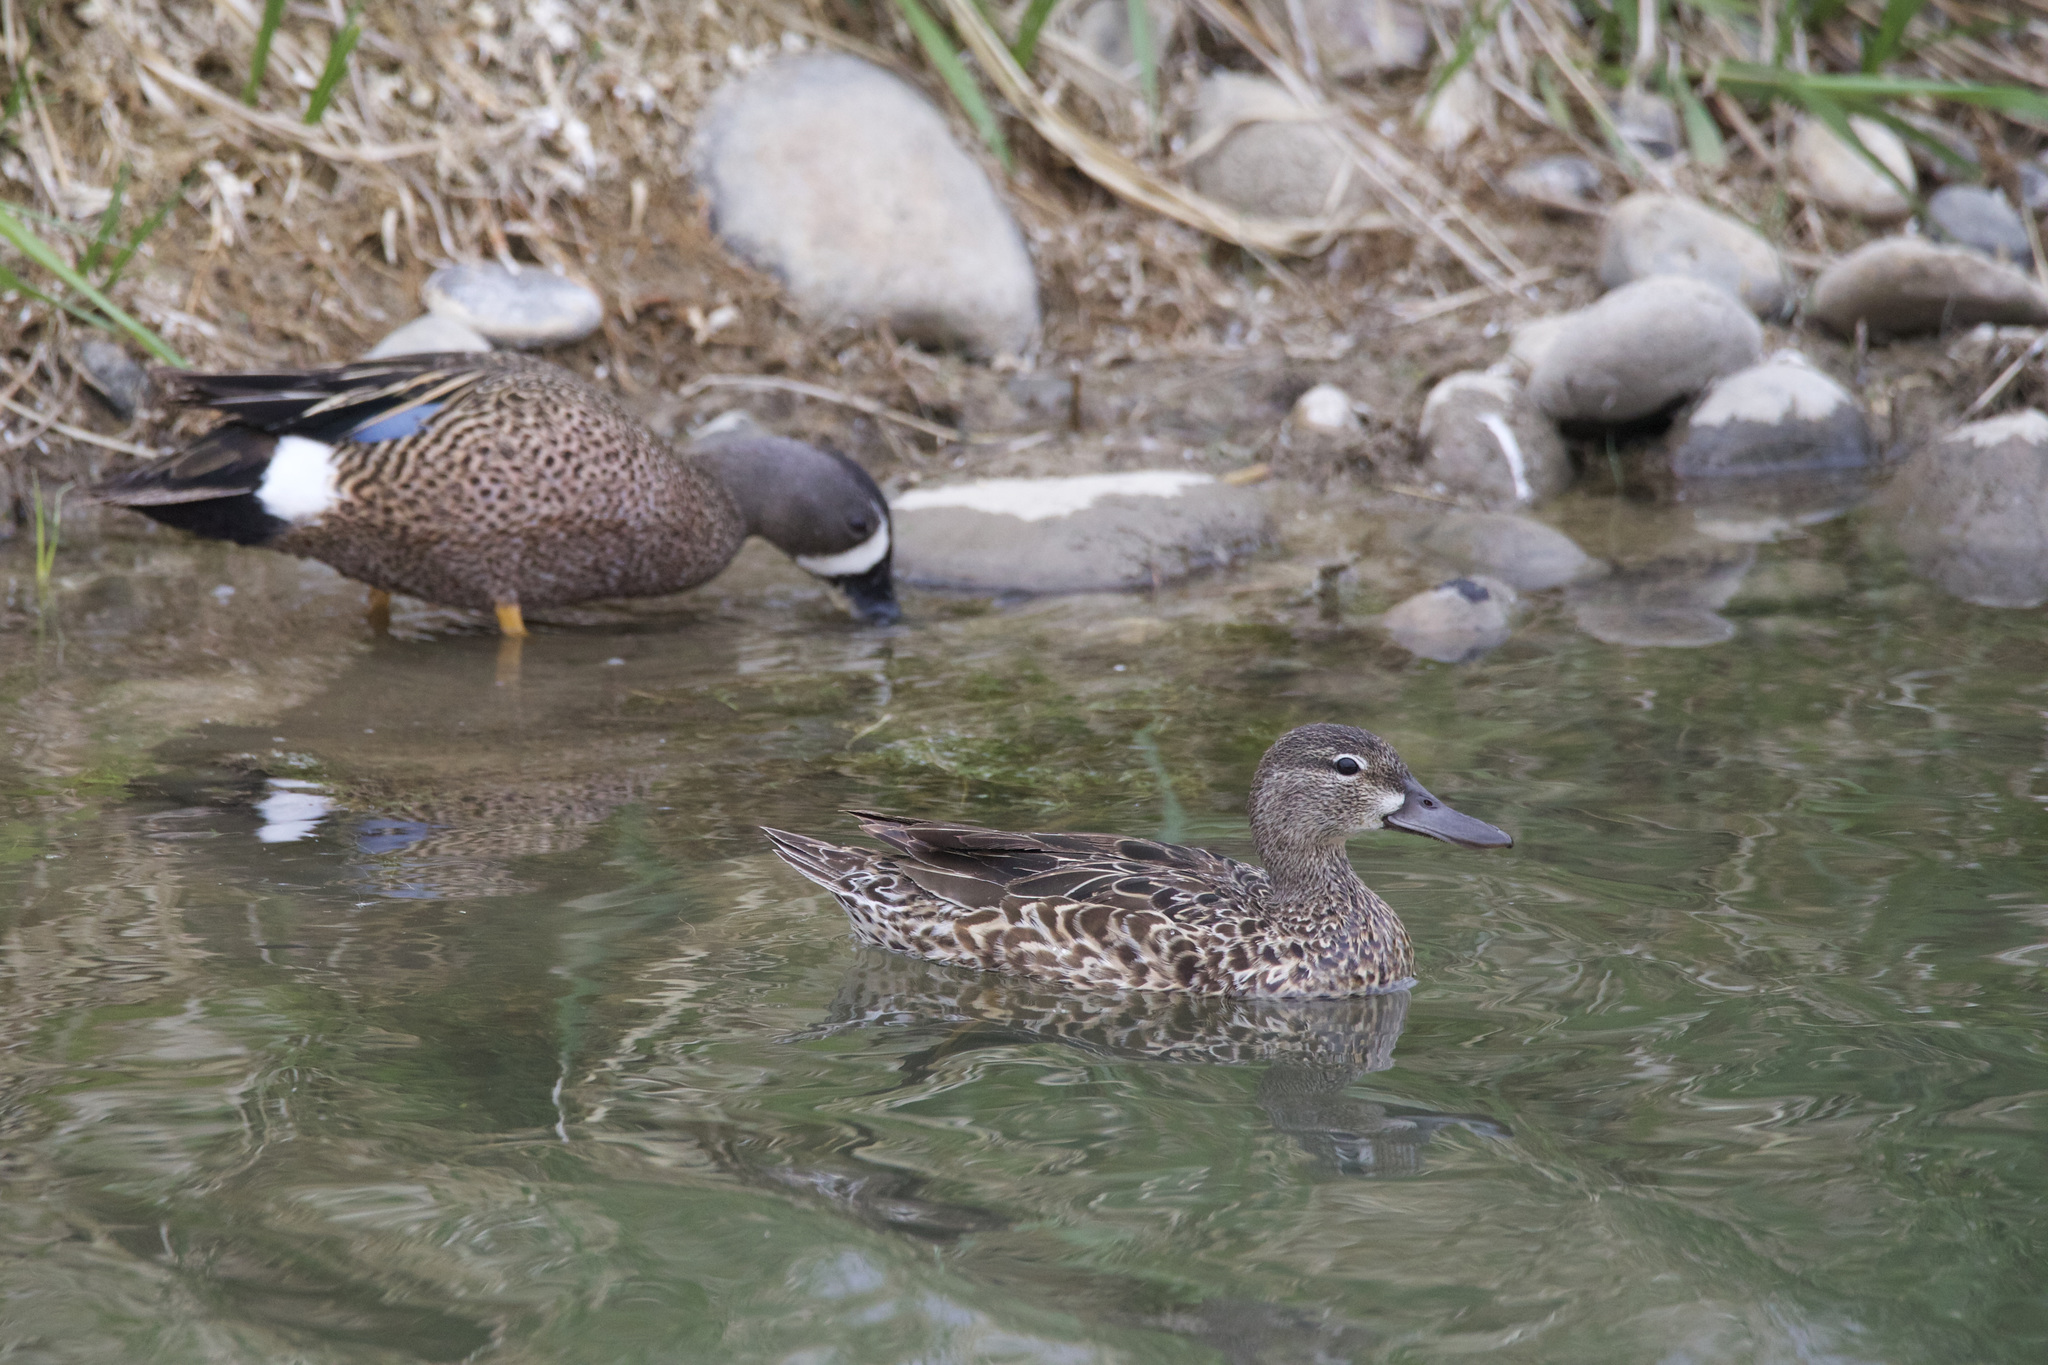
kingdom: Animalia
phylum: Chordata
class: Aves
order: Anseriformes
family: Anatidae
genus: Spatula
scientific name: Spatula discors
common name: Blue-winged teal
